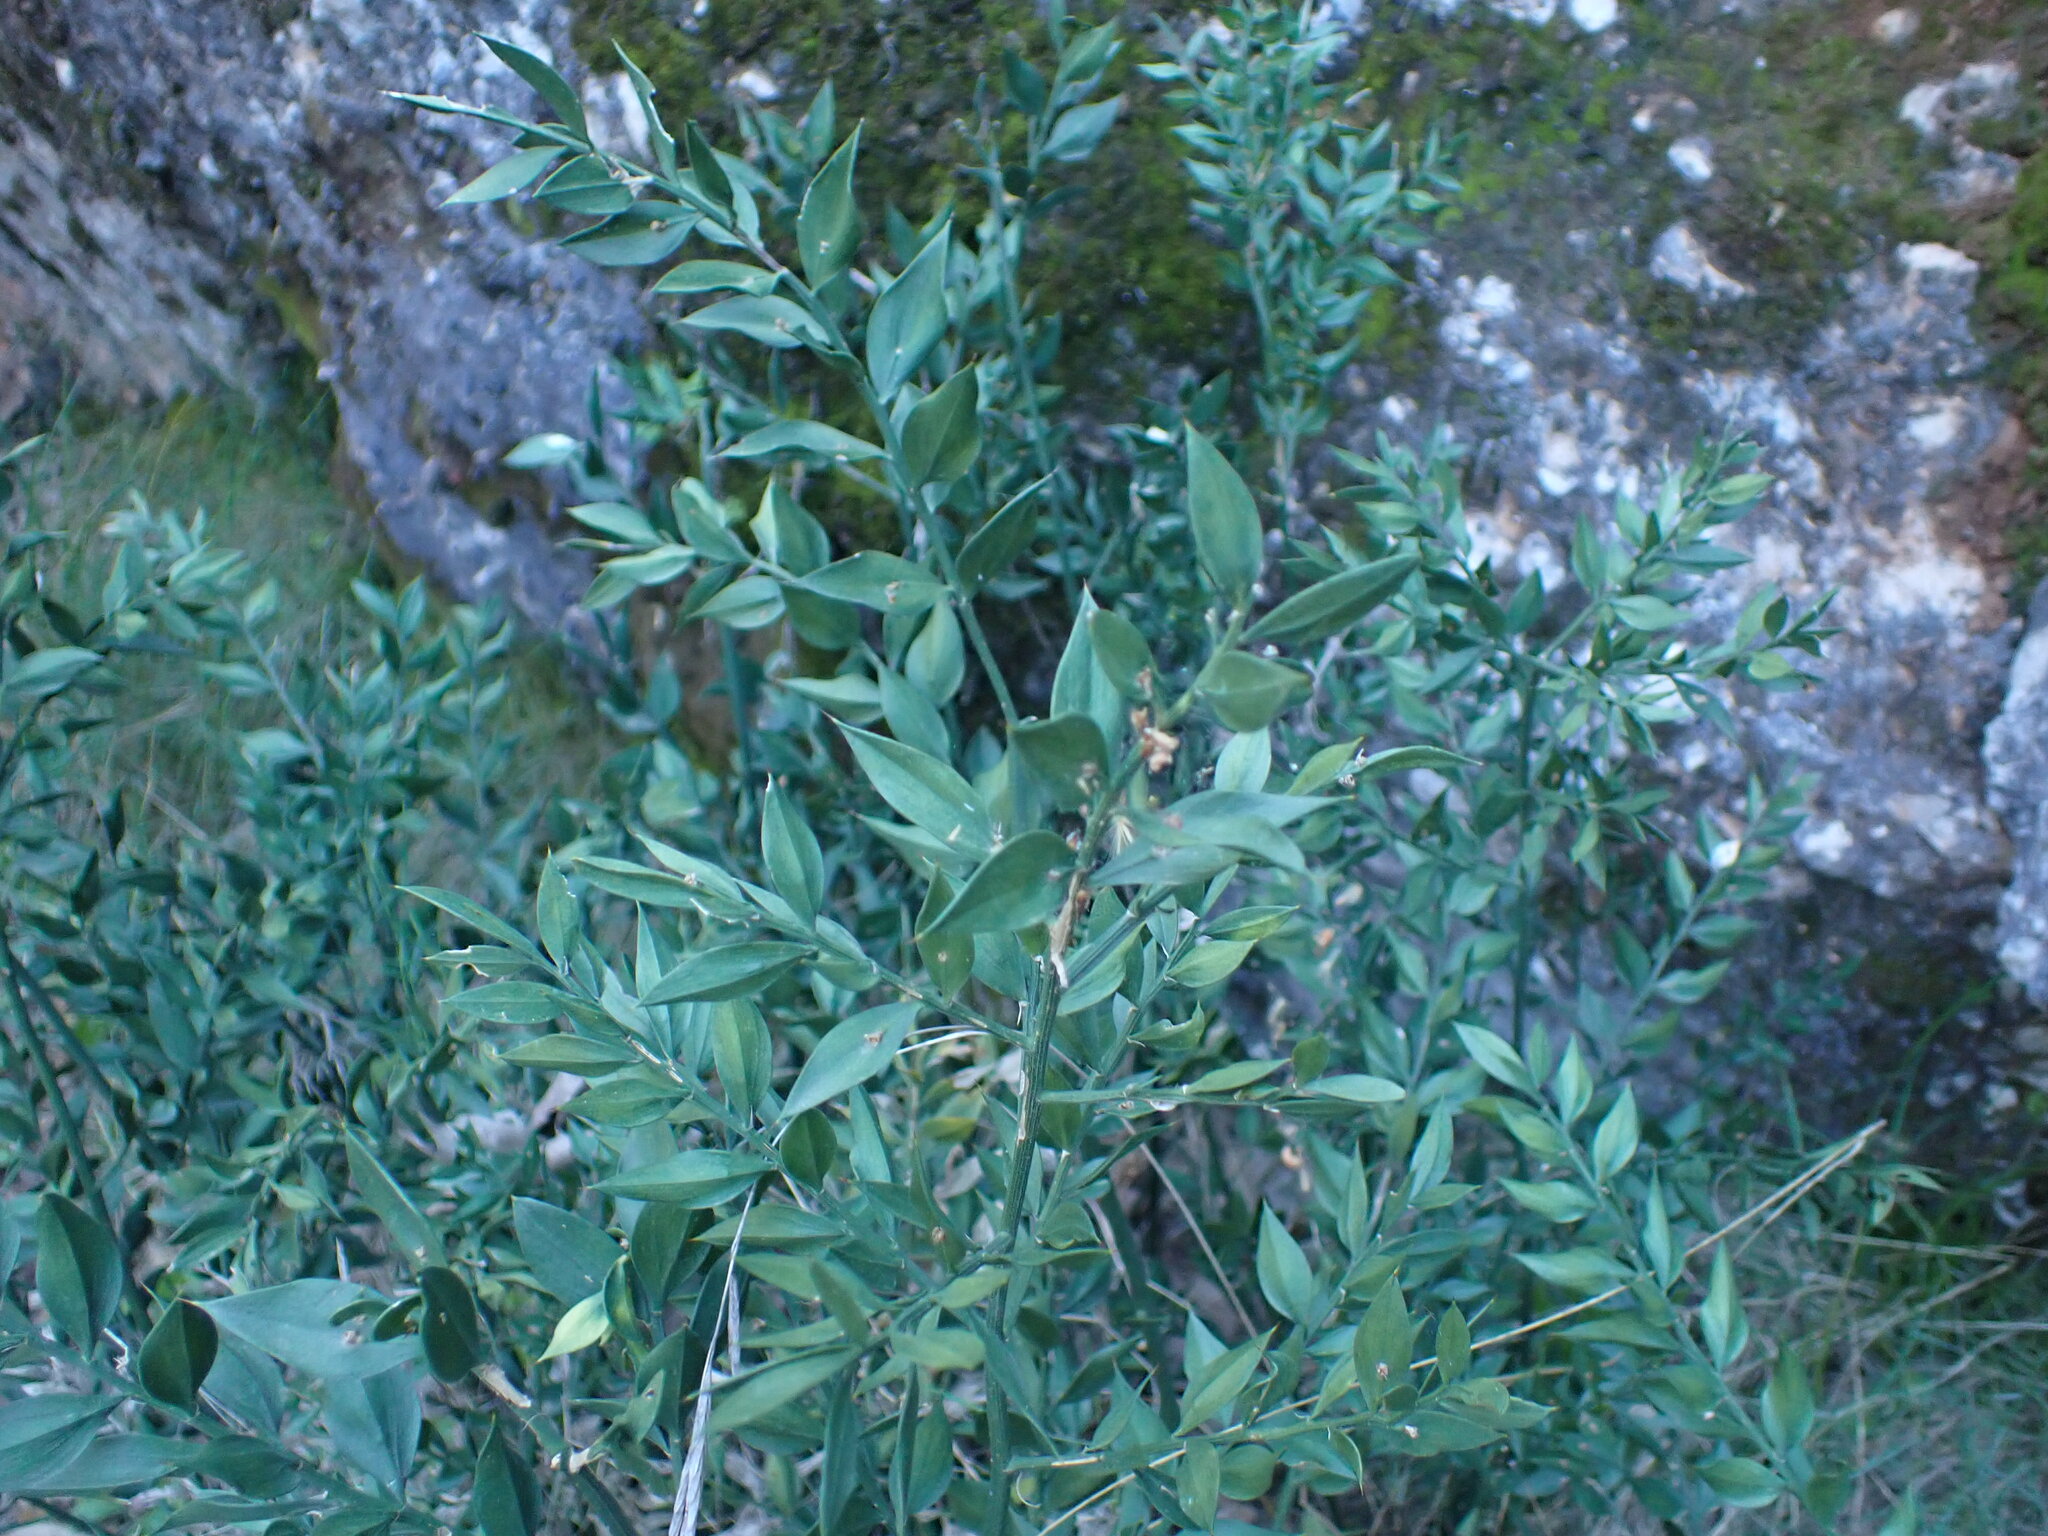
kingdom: Plantae
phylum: Tracheophyta
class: Liliopsida
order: Asparagales
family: Asparagaceae
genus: Ruscus
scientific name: Ruscus aculeatus
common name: Butcher's-broom
